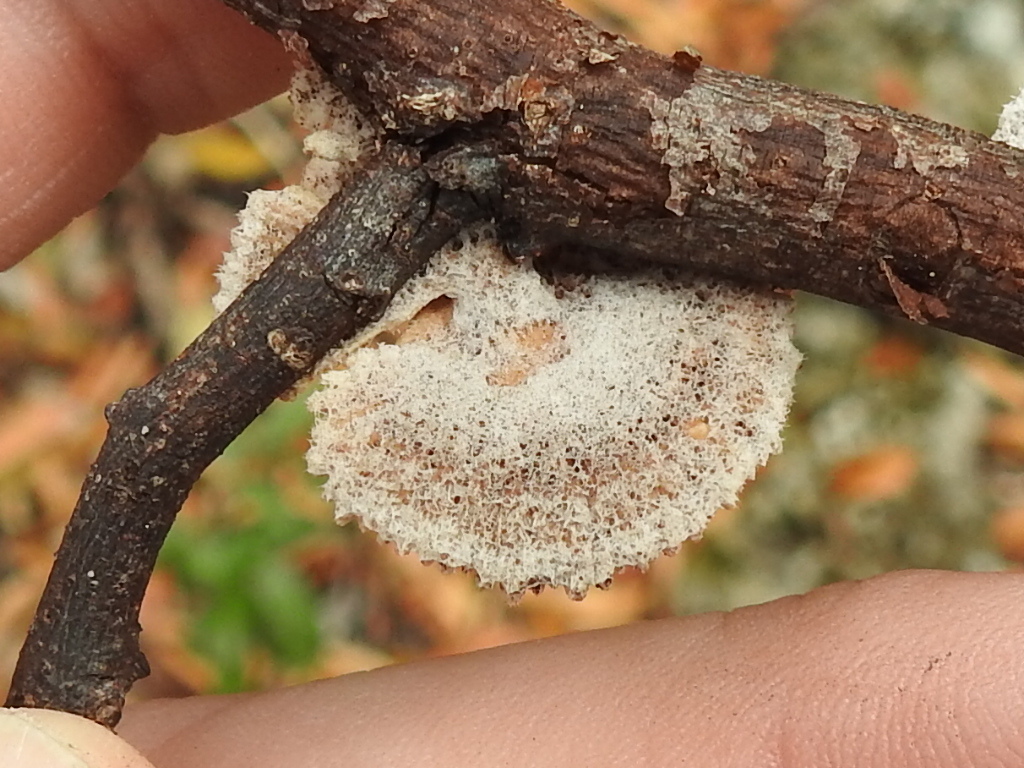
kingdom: Fungi
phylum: Basidiomycota
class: Agaricomycetes
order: Agaricales
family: Schizophyllaceae
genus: Schizophyllum
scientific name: Schizophyllum commune
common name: Common porecrust
